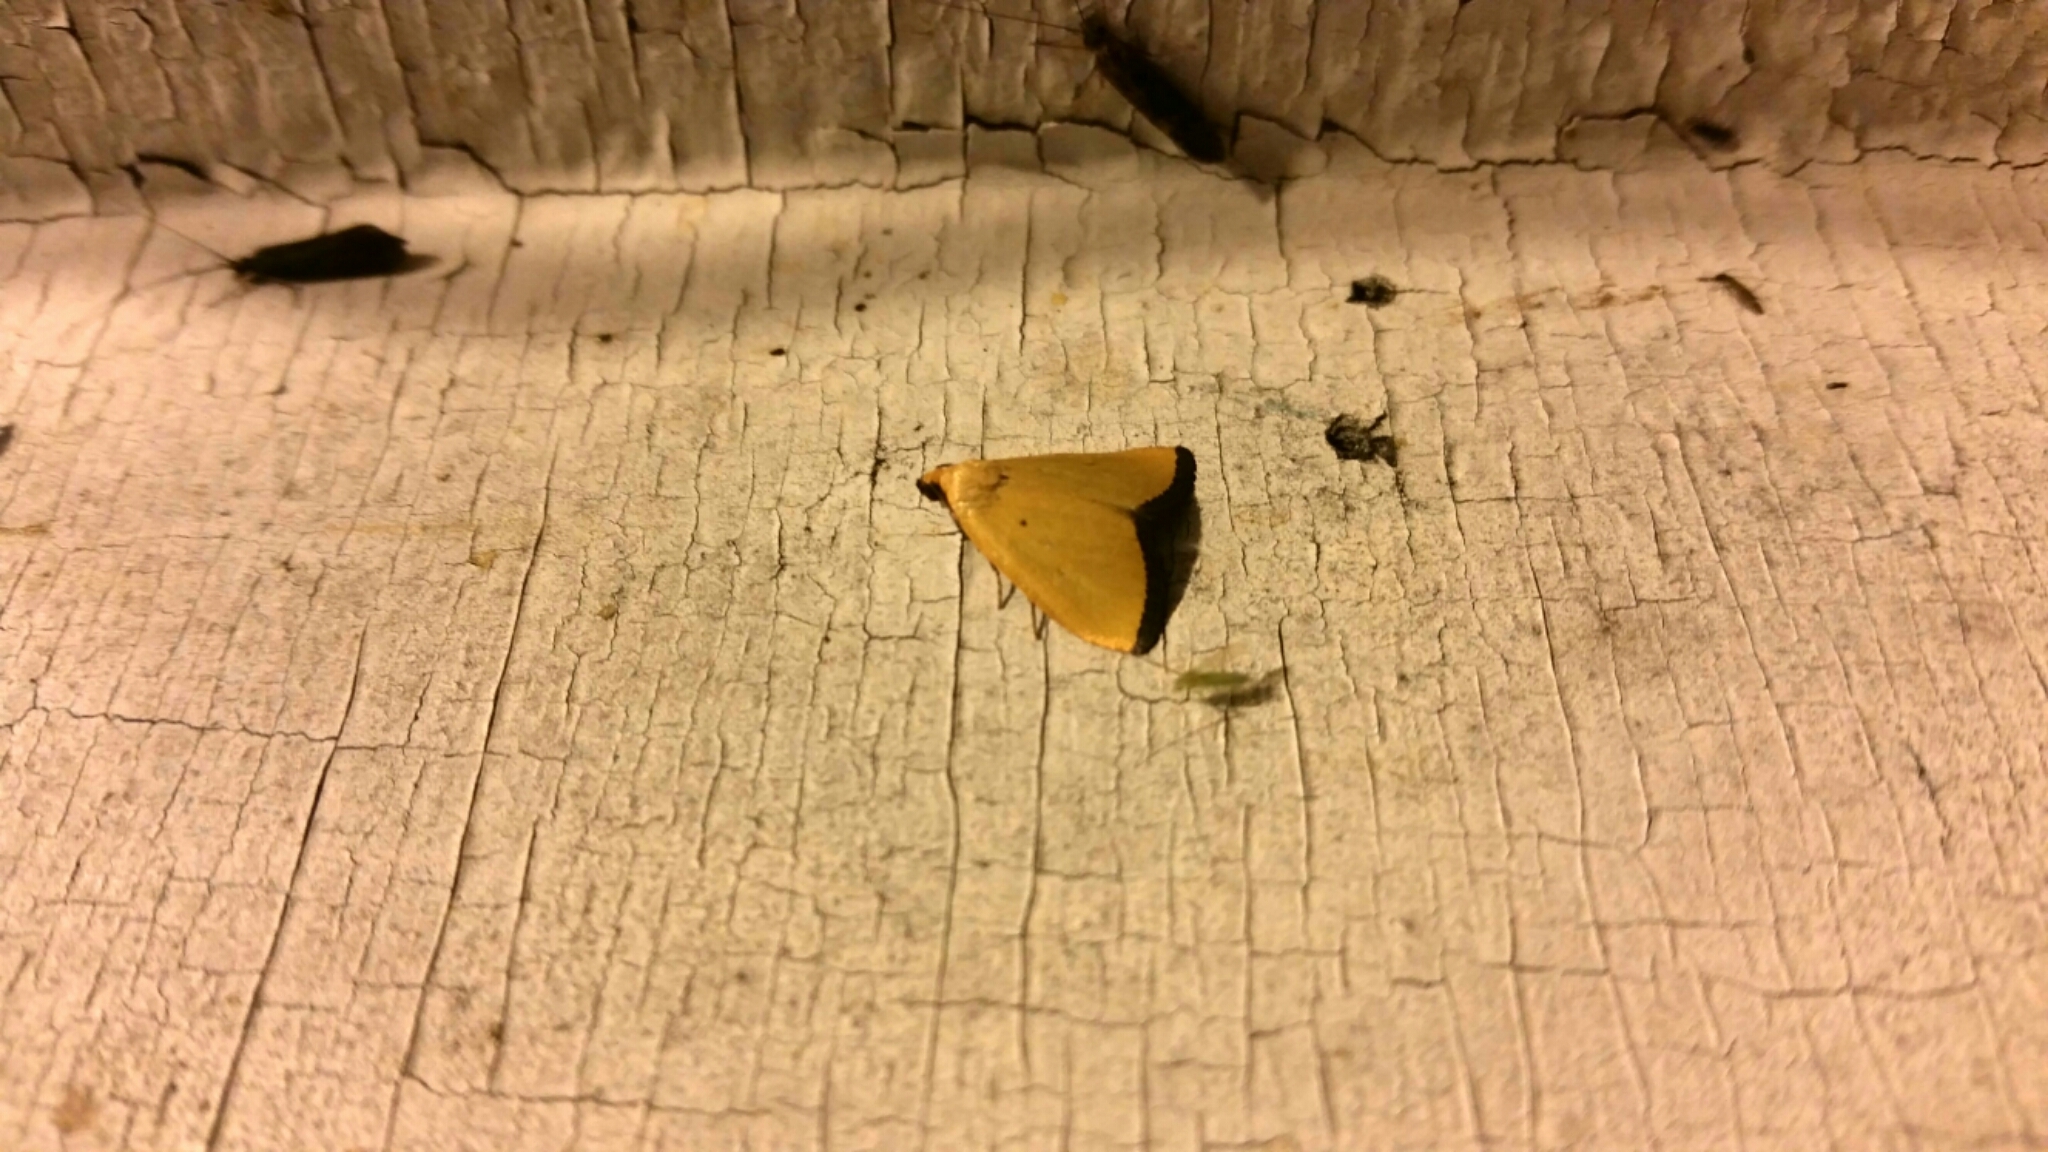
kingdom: Animalia
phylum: Arthropoda
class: Insecta
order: Lepidoptera
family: Noctuidae
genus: Marimatha
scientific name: Marimatha nigrofimbria
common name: Black-bordered lemon moth
